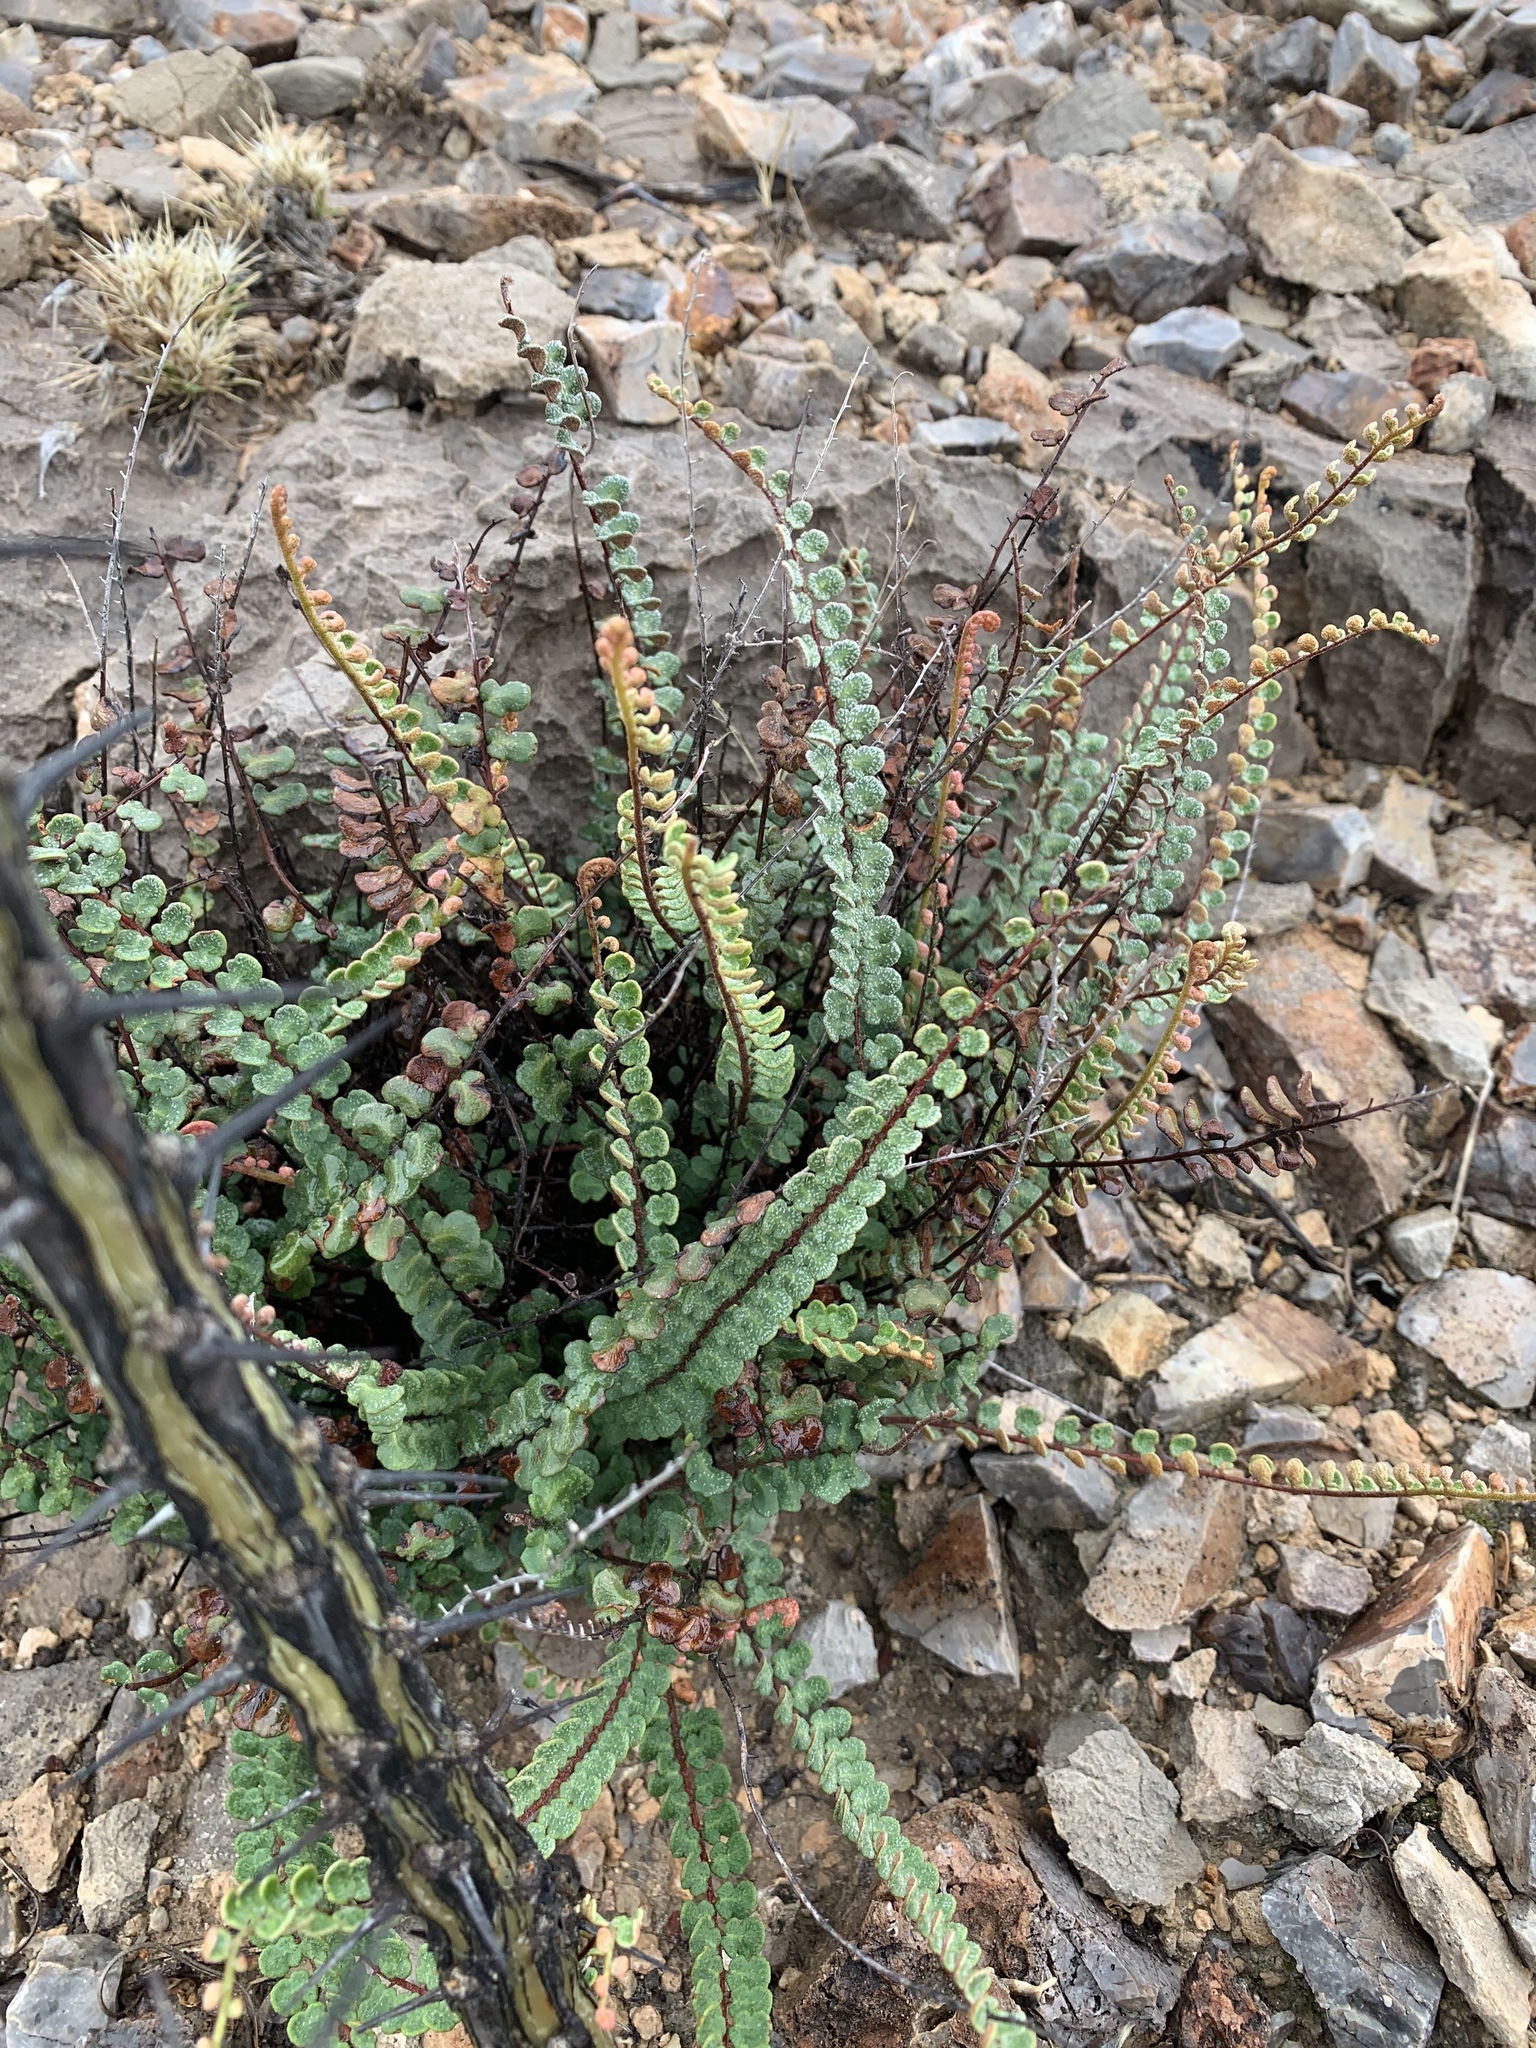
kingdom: Plantae
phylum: Tracheophyta
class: Polypodiopsida
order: Polypodiales
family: Pteridaceae
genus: Astrolepis
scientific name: Astrolepis cochisensis
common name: Scaly cloak fern
